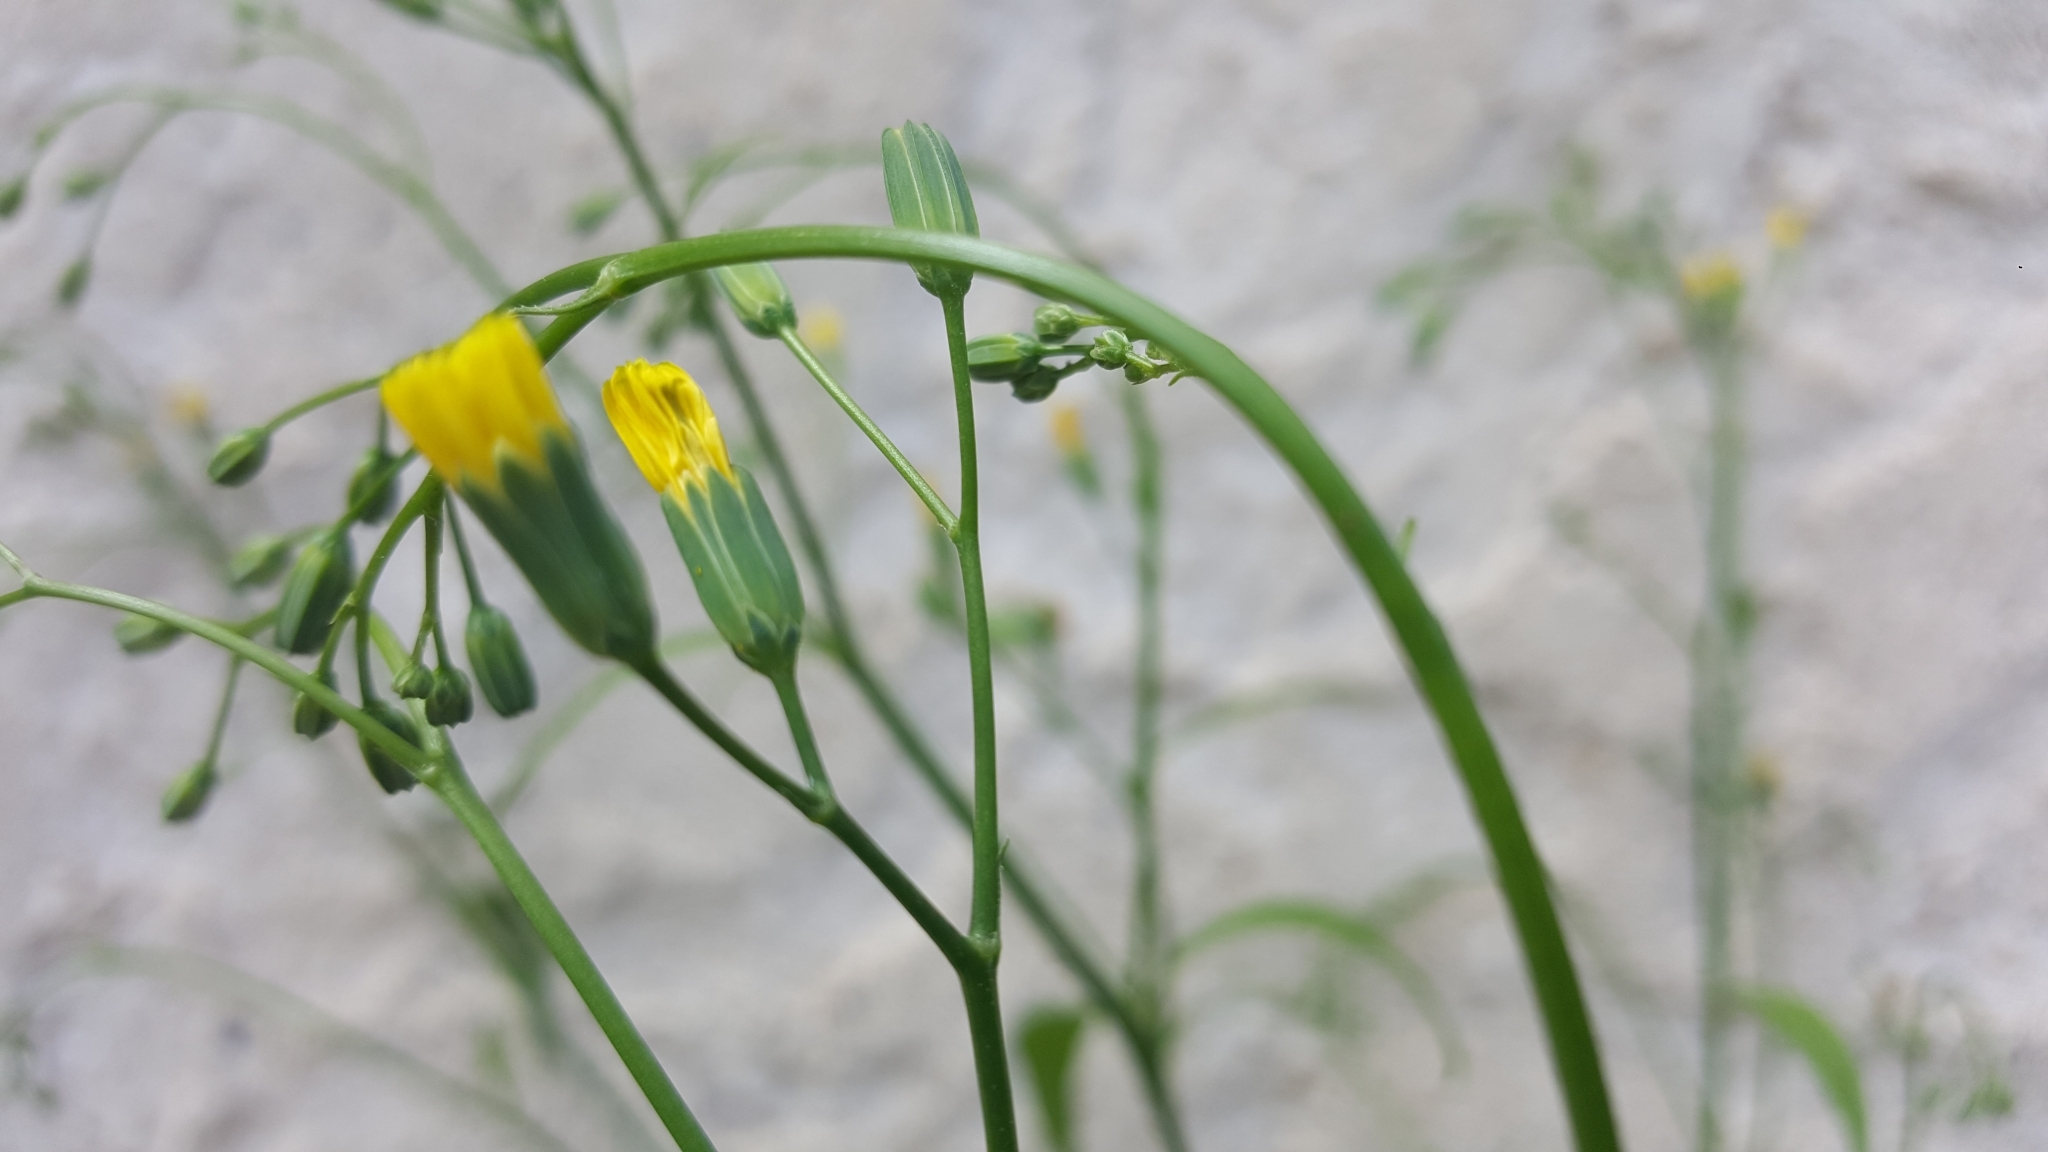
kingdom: Plantae
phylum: Tracheophyta
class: Magnoliopsida
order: Asterales
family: Asteraceae
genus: Lapsana
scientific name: Lapsana communis
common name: Nipplewort
